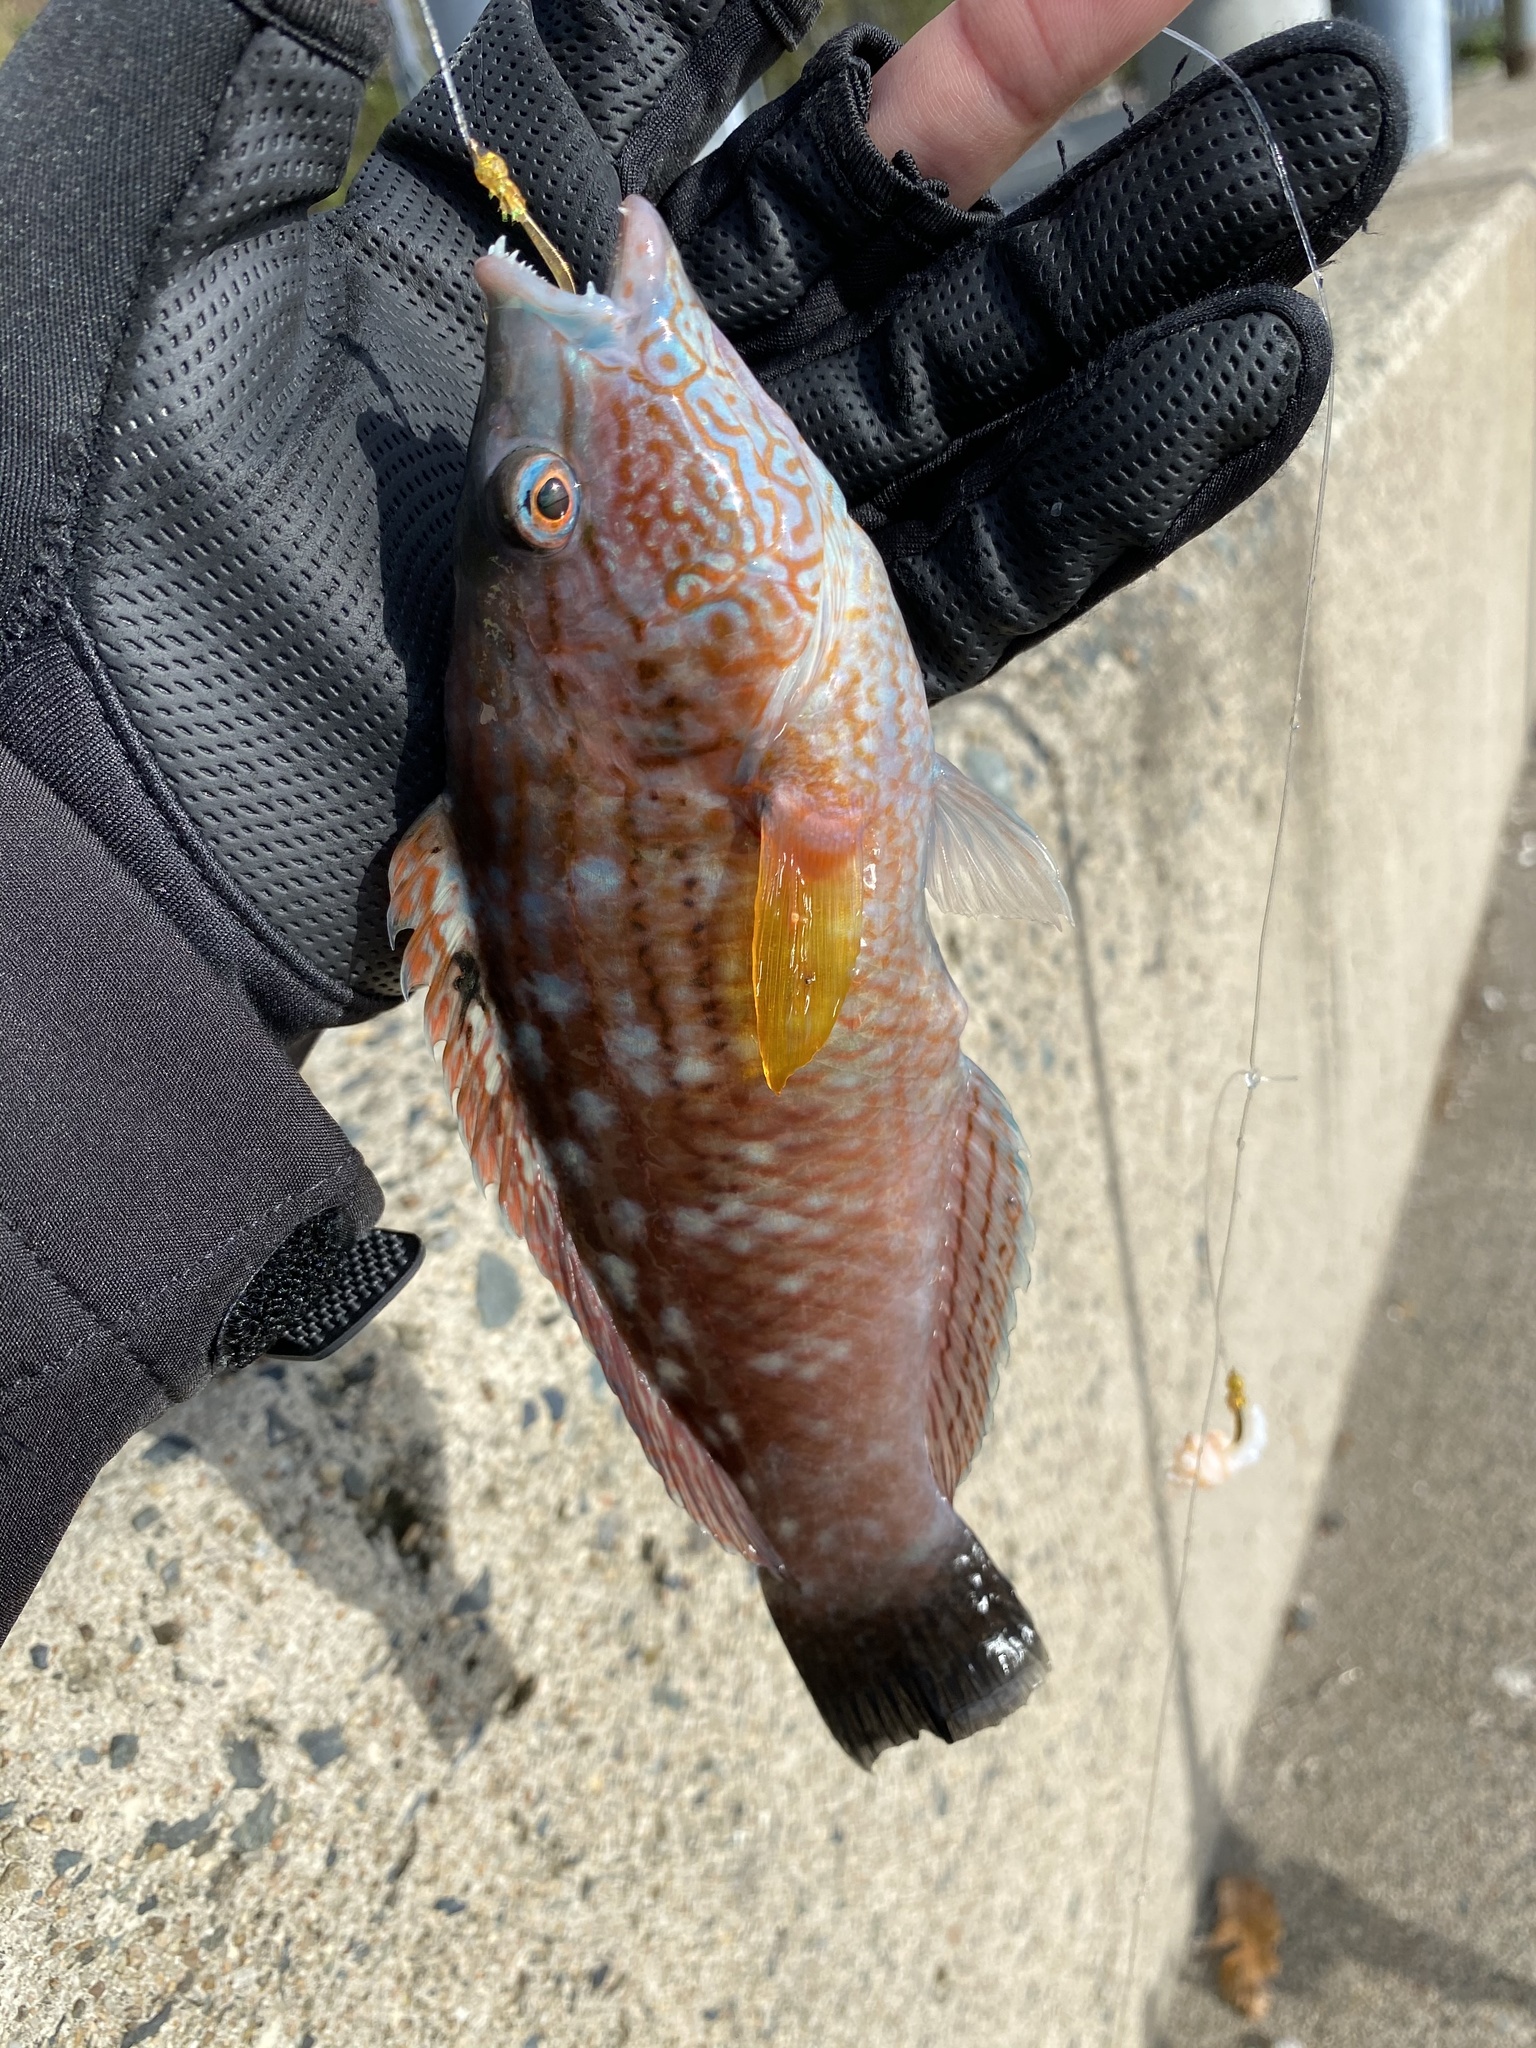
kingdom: Animalia
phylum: Chordata
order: Perciformes
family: Labridae
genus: Pseudolabrus
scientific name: Pseudolabrus sieboldi
